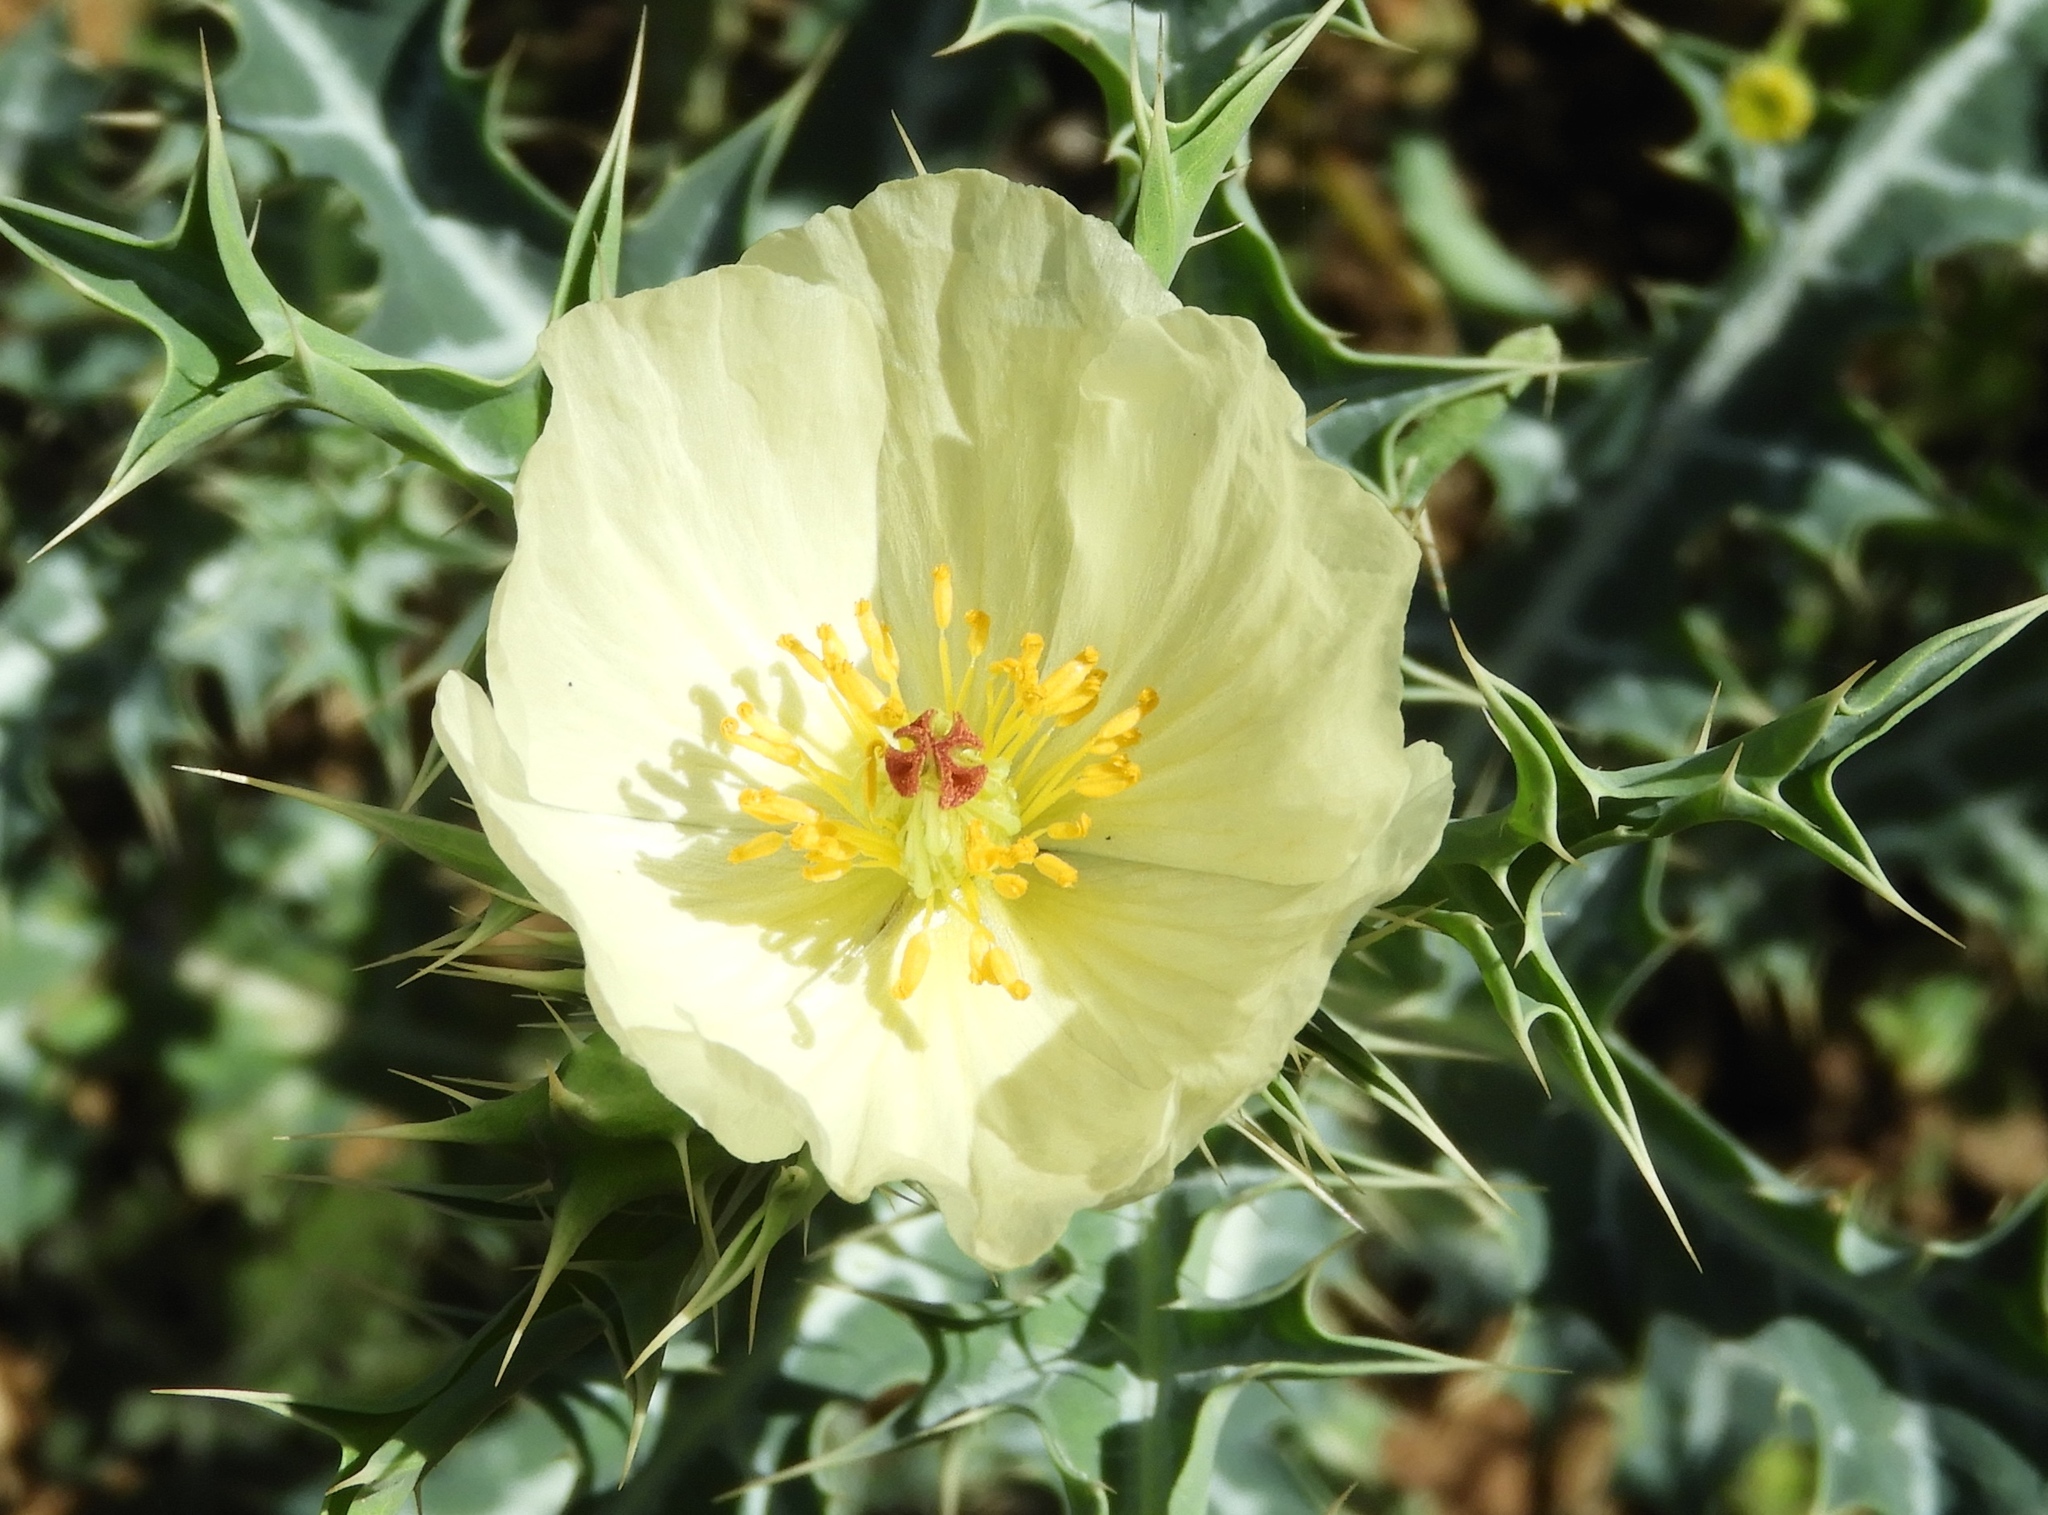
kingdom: Plantae
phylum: Tracheophyta
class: Magnoliopsida
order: Ranunculales
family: Papaveraceae
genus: Argemone
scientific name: Argemone ochroleuca
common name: White-flower mexican-poppy
